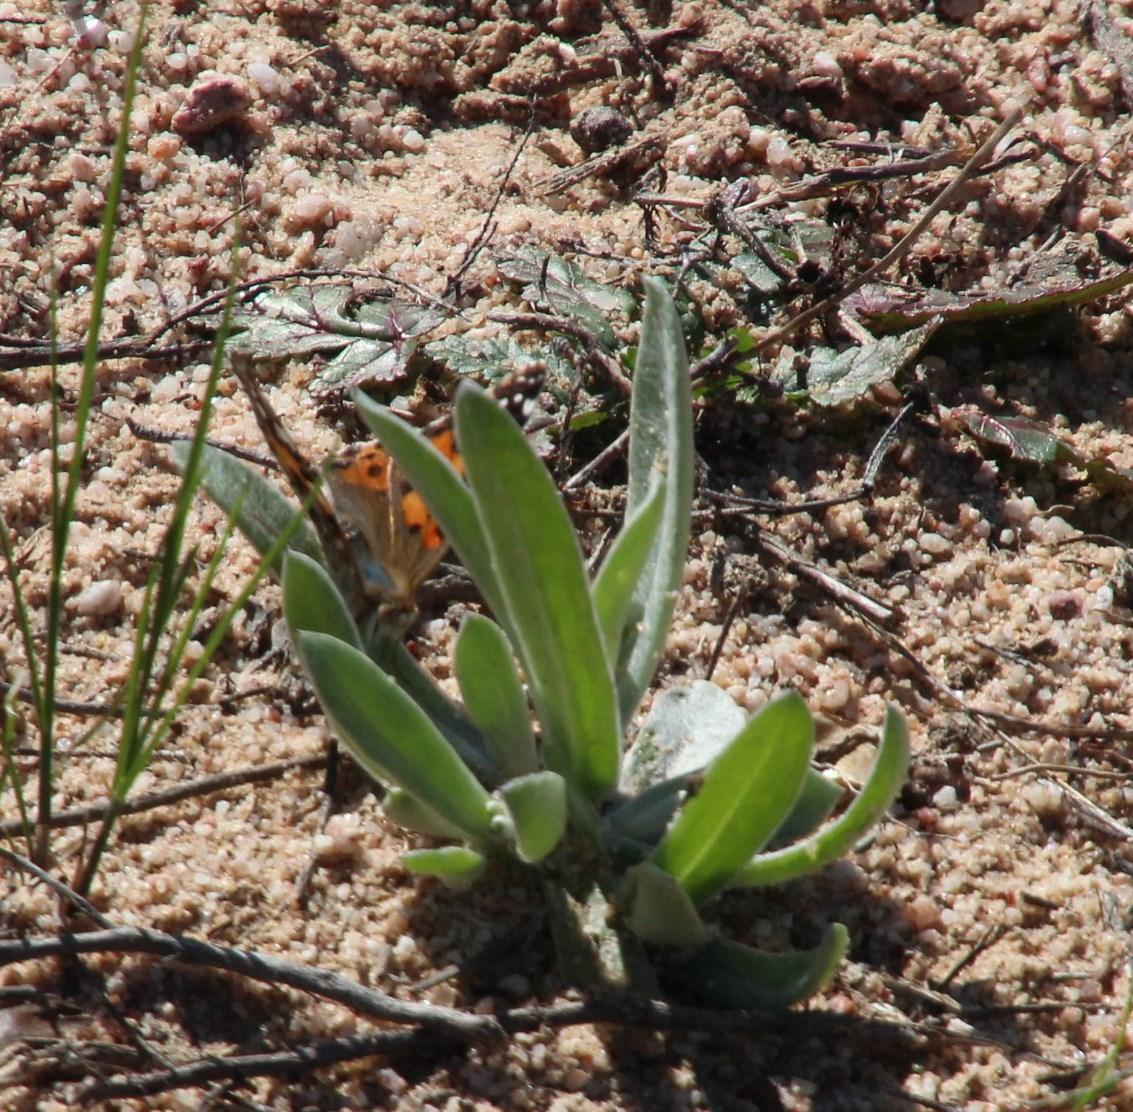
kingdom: Animalia
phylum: Arthropoda
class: Insecta
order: Lepidoptera
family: Nymphalidae
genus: Vanessa
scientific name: Vanessa cardui
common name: Painted lady
